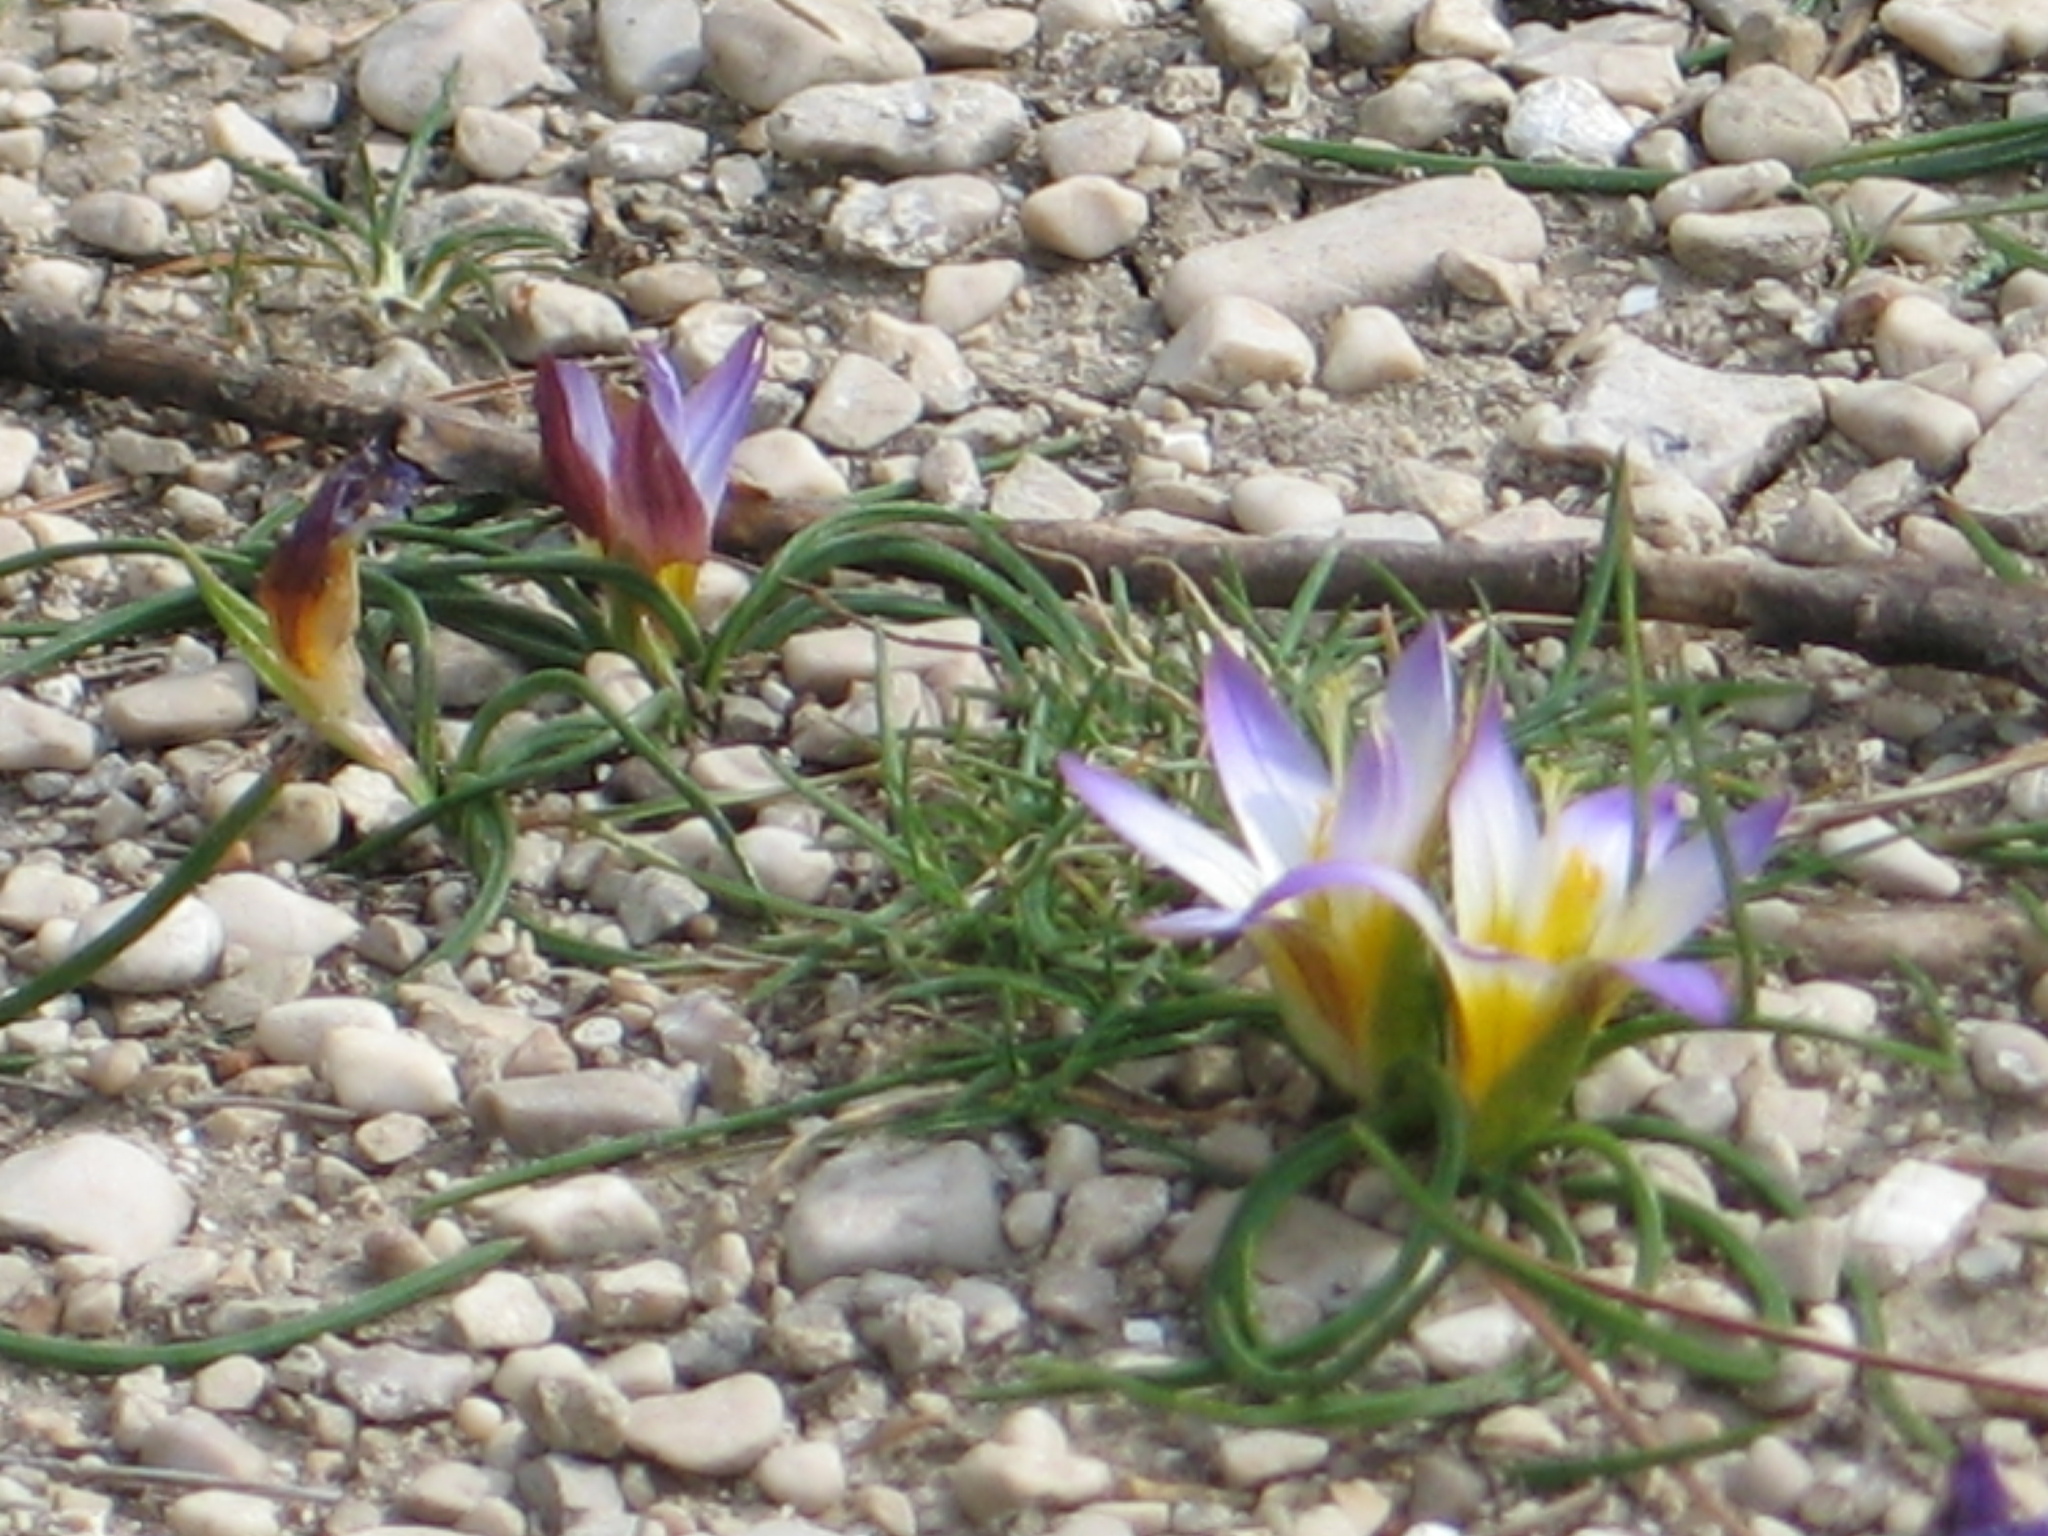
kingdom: Plantae
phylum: Tracheophyta
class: Liliopsida
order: Asparagales
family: Iridaceae
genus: Romulea
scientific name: Romulea bulbocodium
